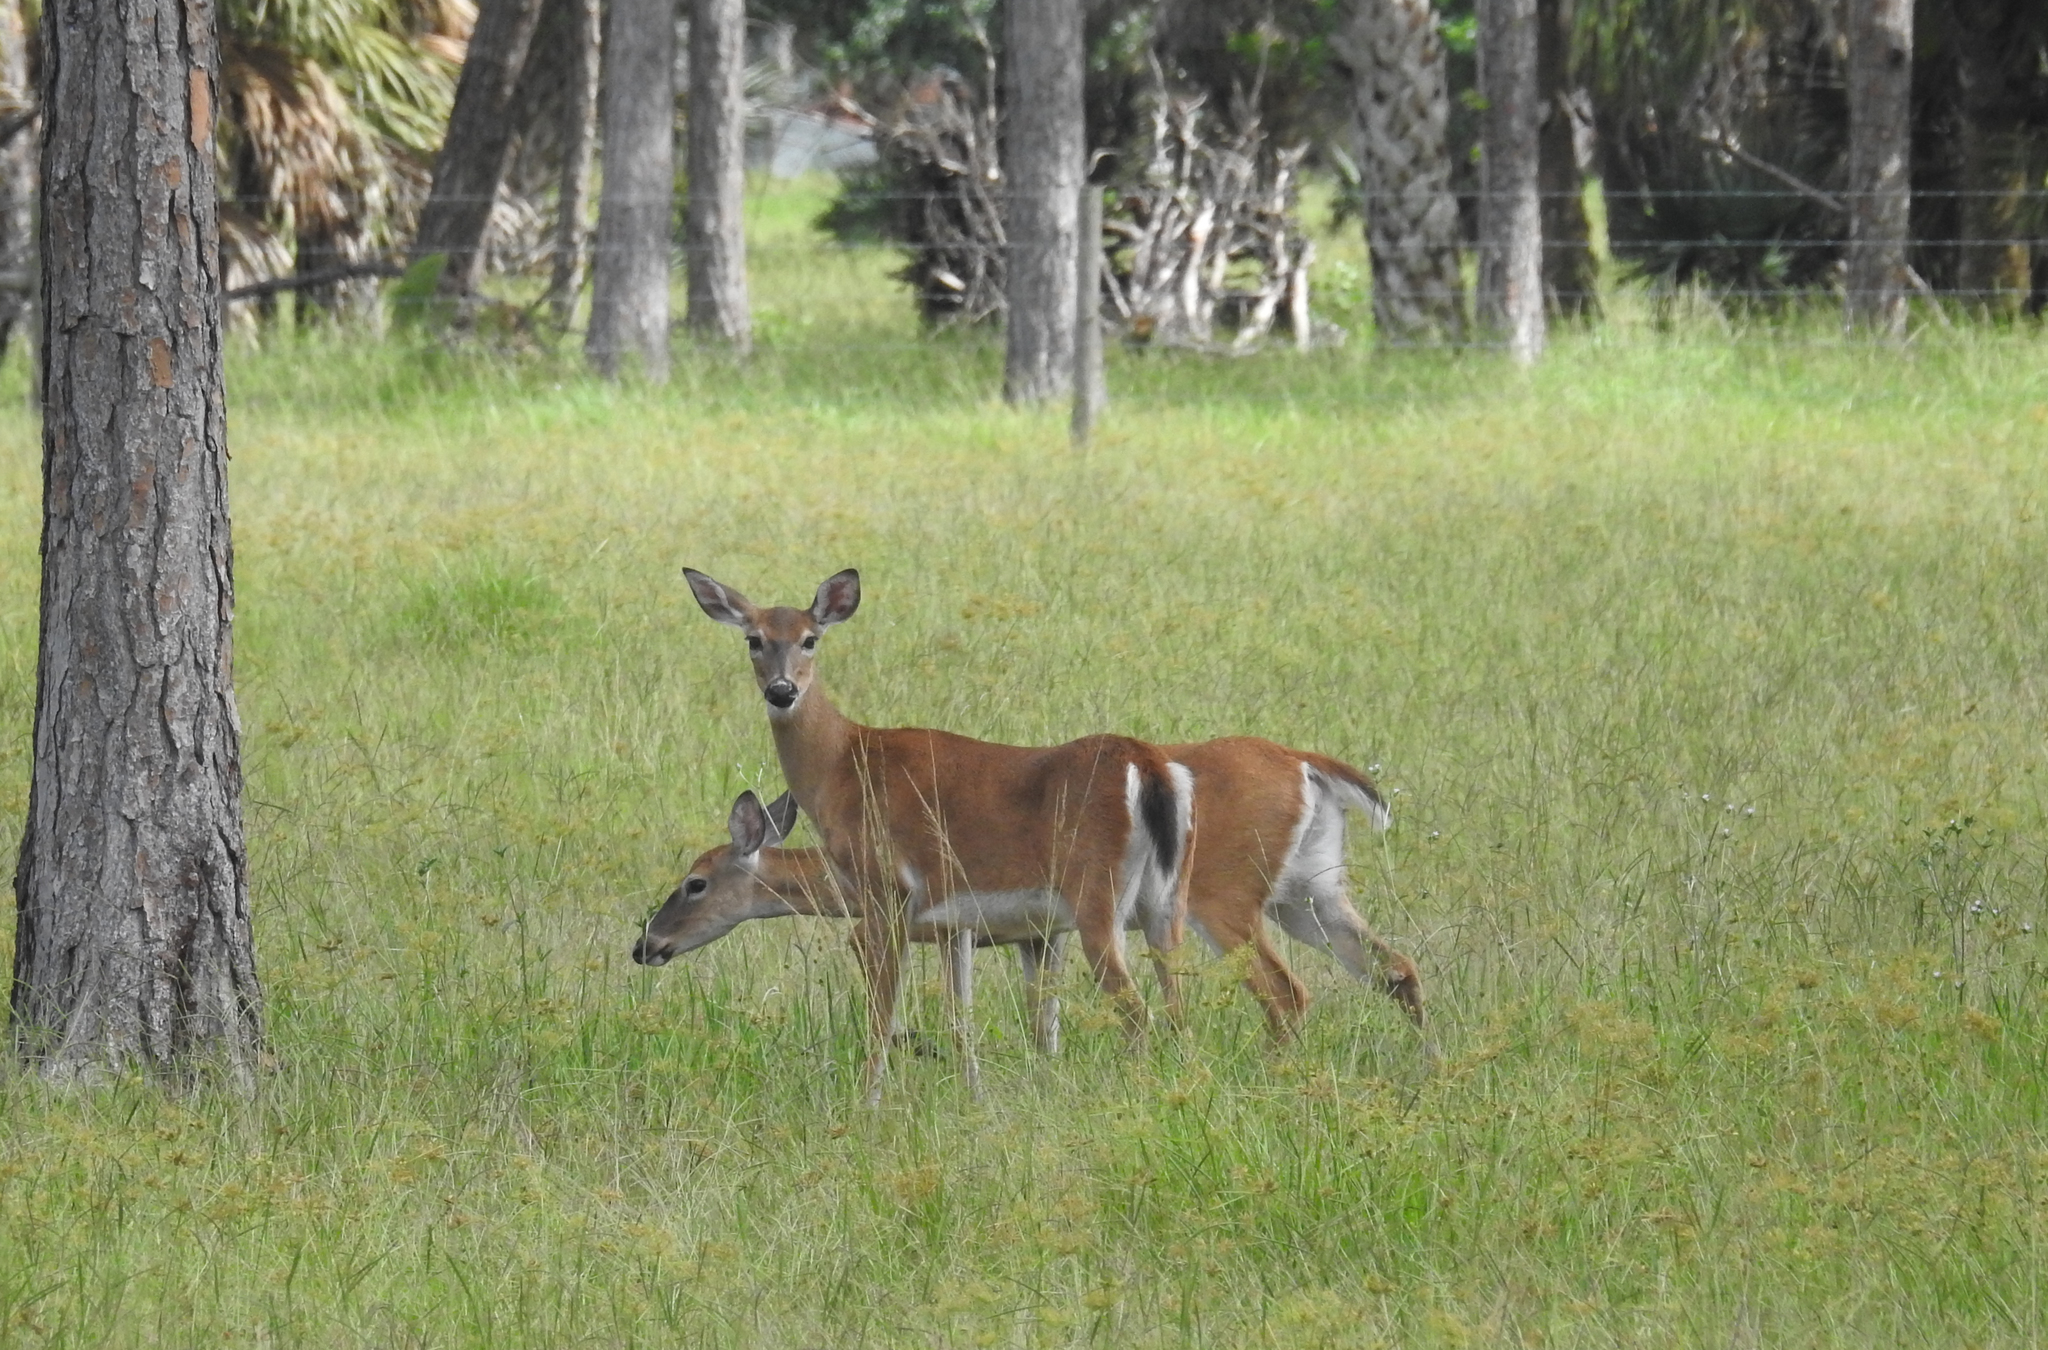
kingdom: Animalia
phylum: Chordata
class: Mammalia
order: Artiodactyla
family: Cervidae
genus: Odocoileus
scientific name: Odocoileus virginianus
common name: White-tailed deer
